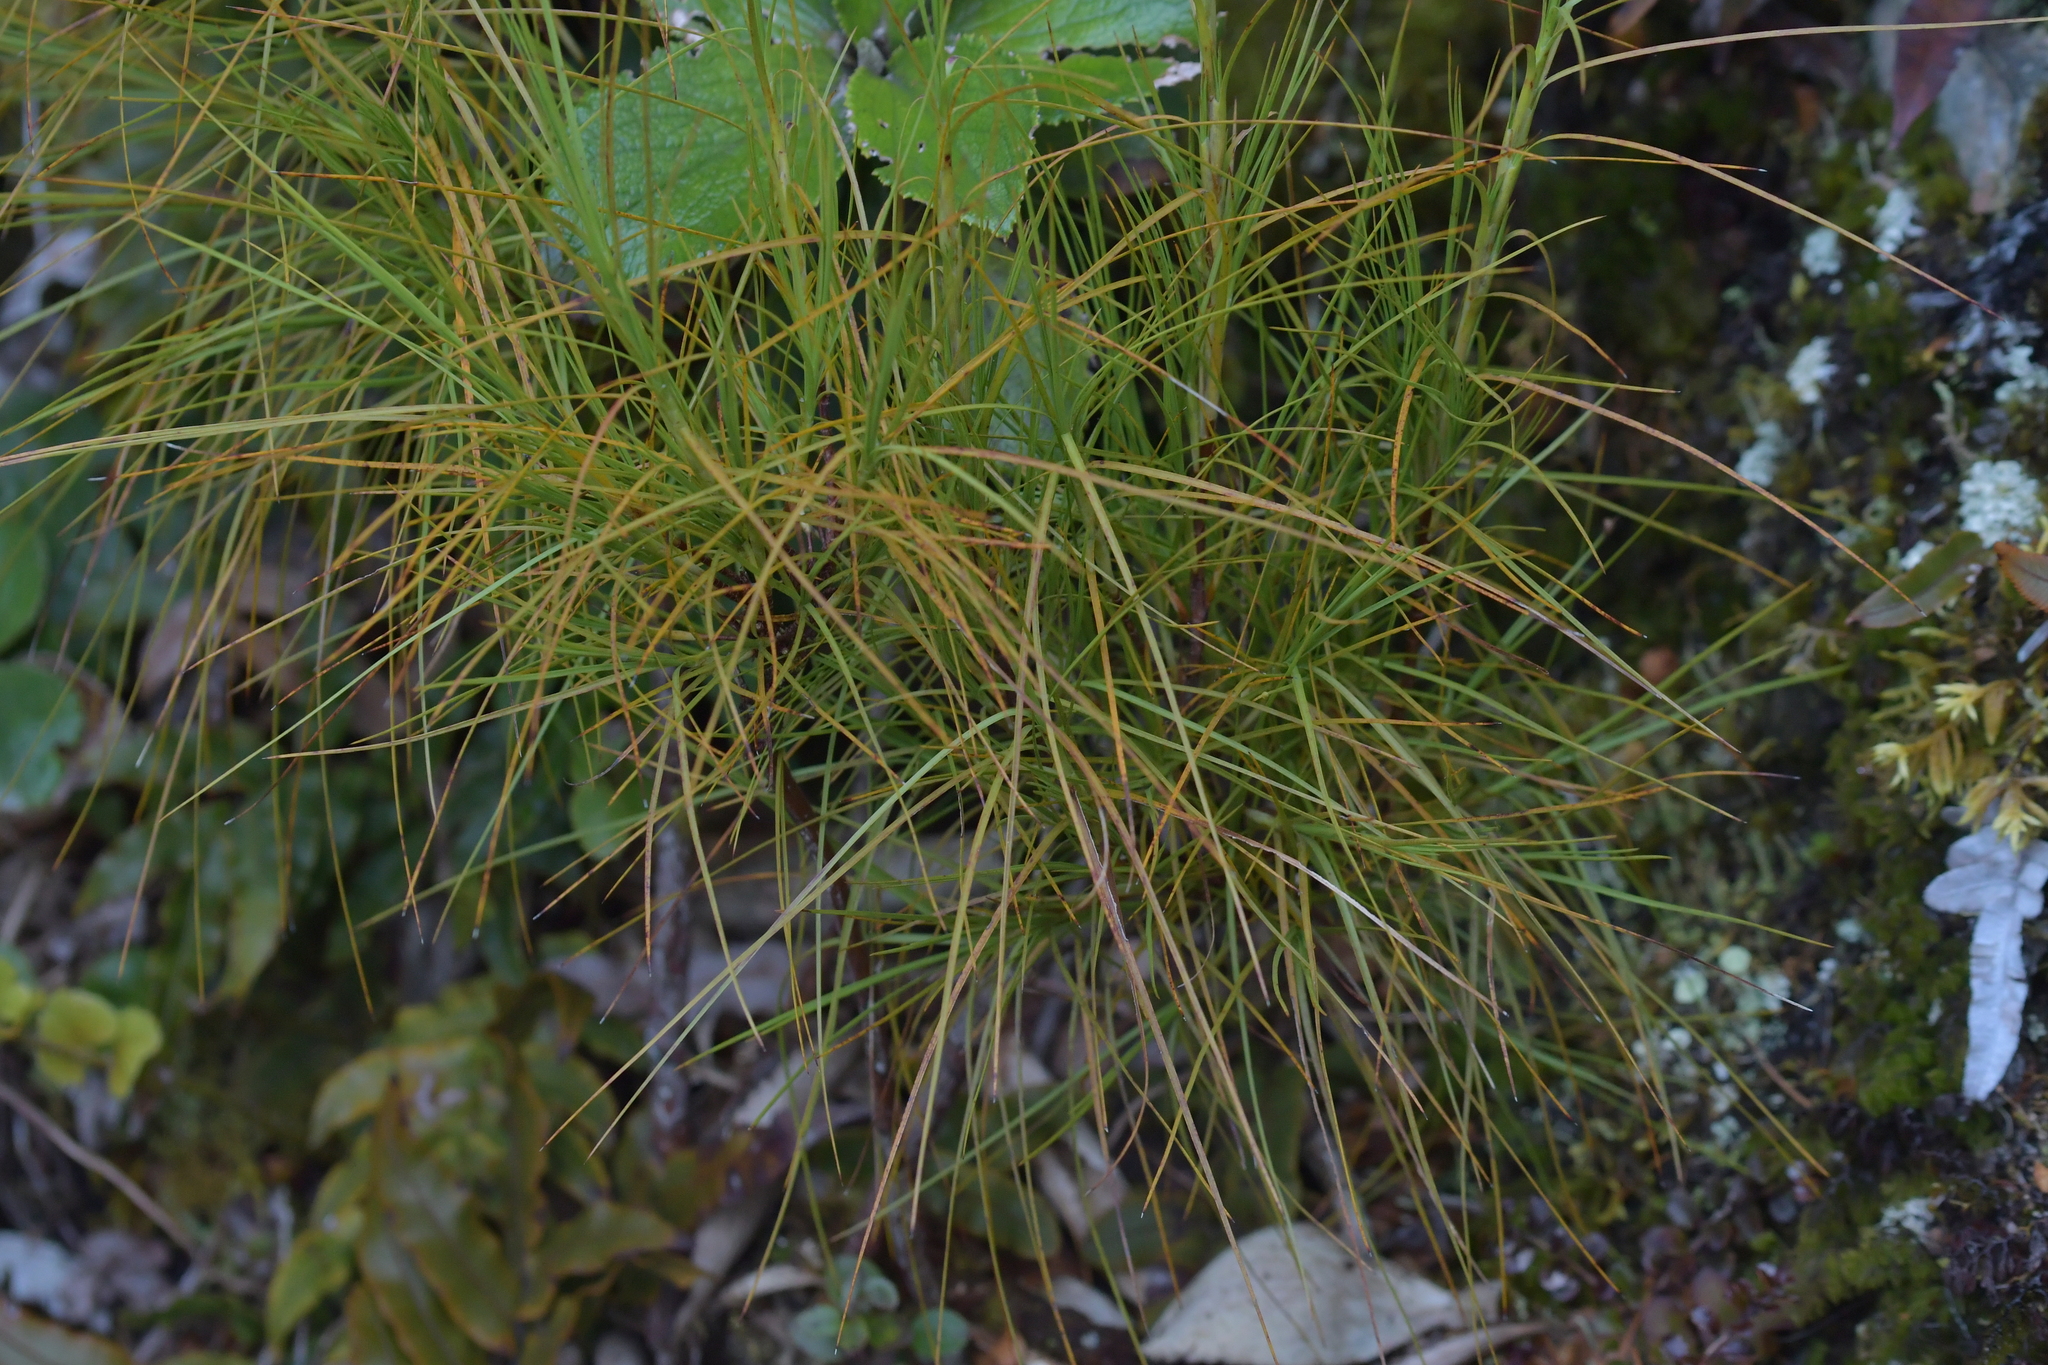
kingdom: Plantae
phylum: Tracheophyta
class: Magnoliopsida
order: Ericales
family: Ericaceae
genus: Dracophyllum
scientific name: Dracophyllum filifolium
